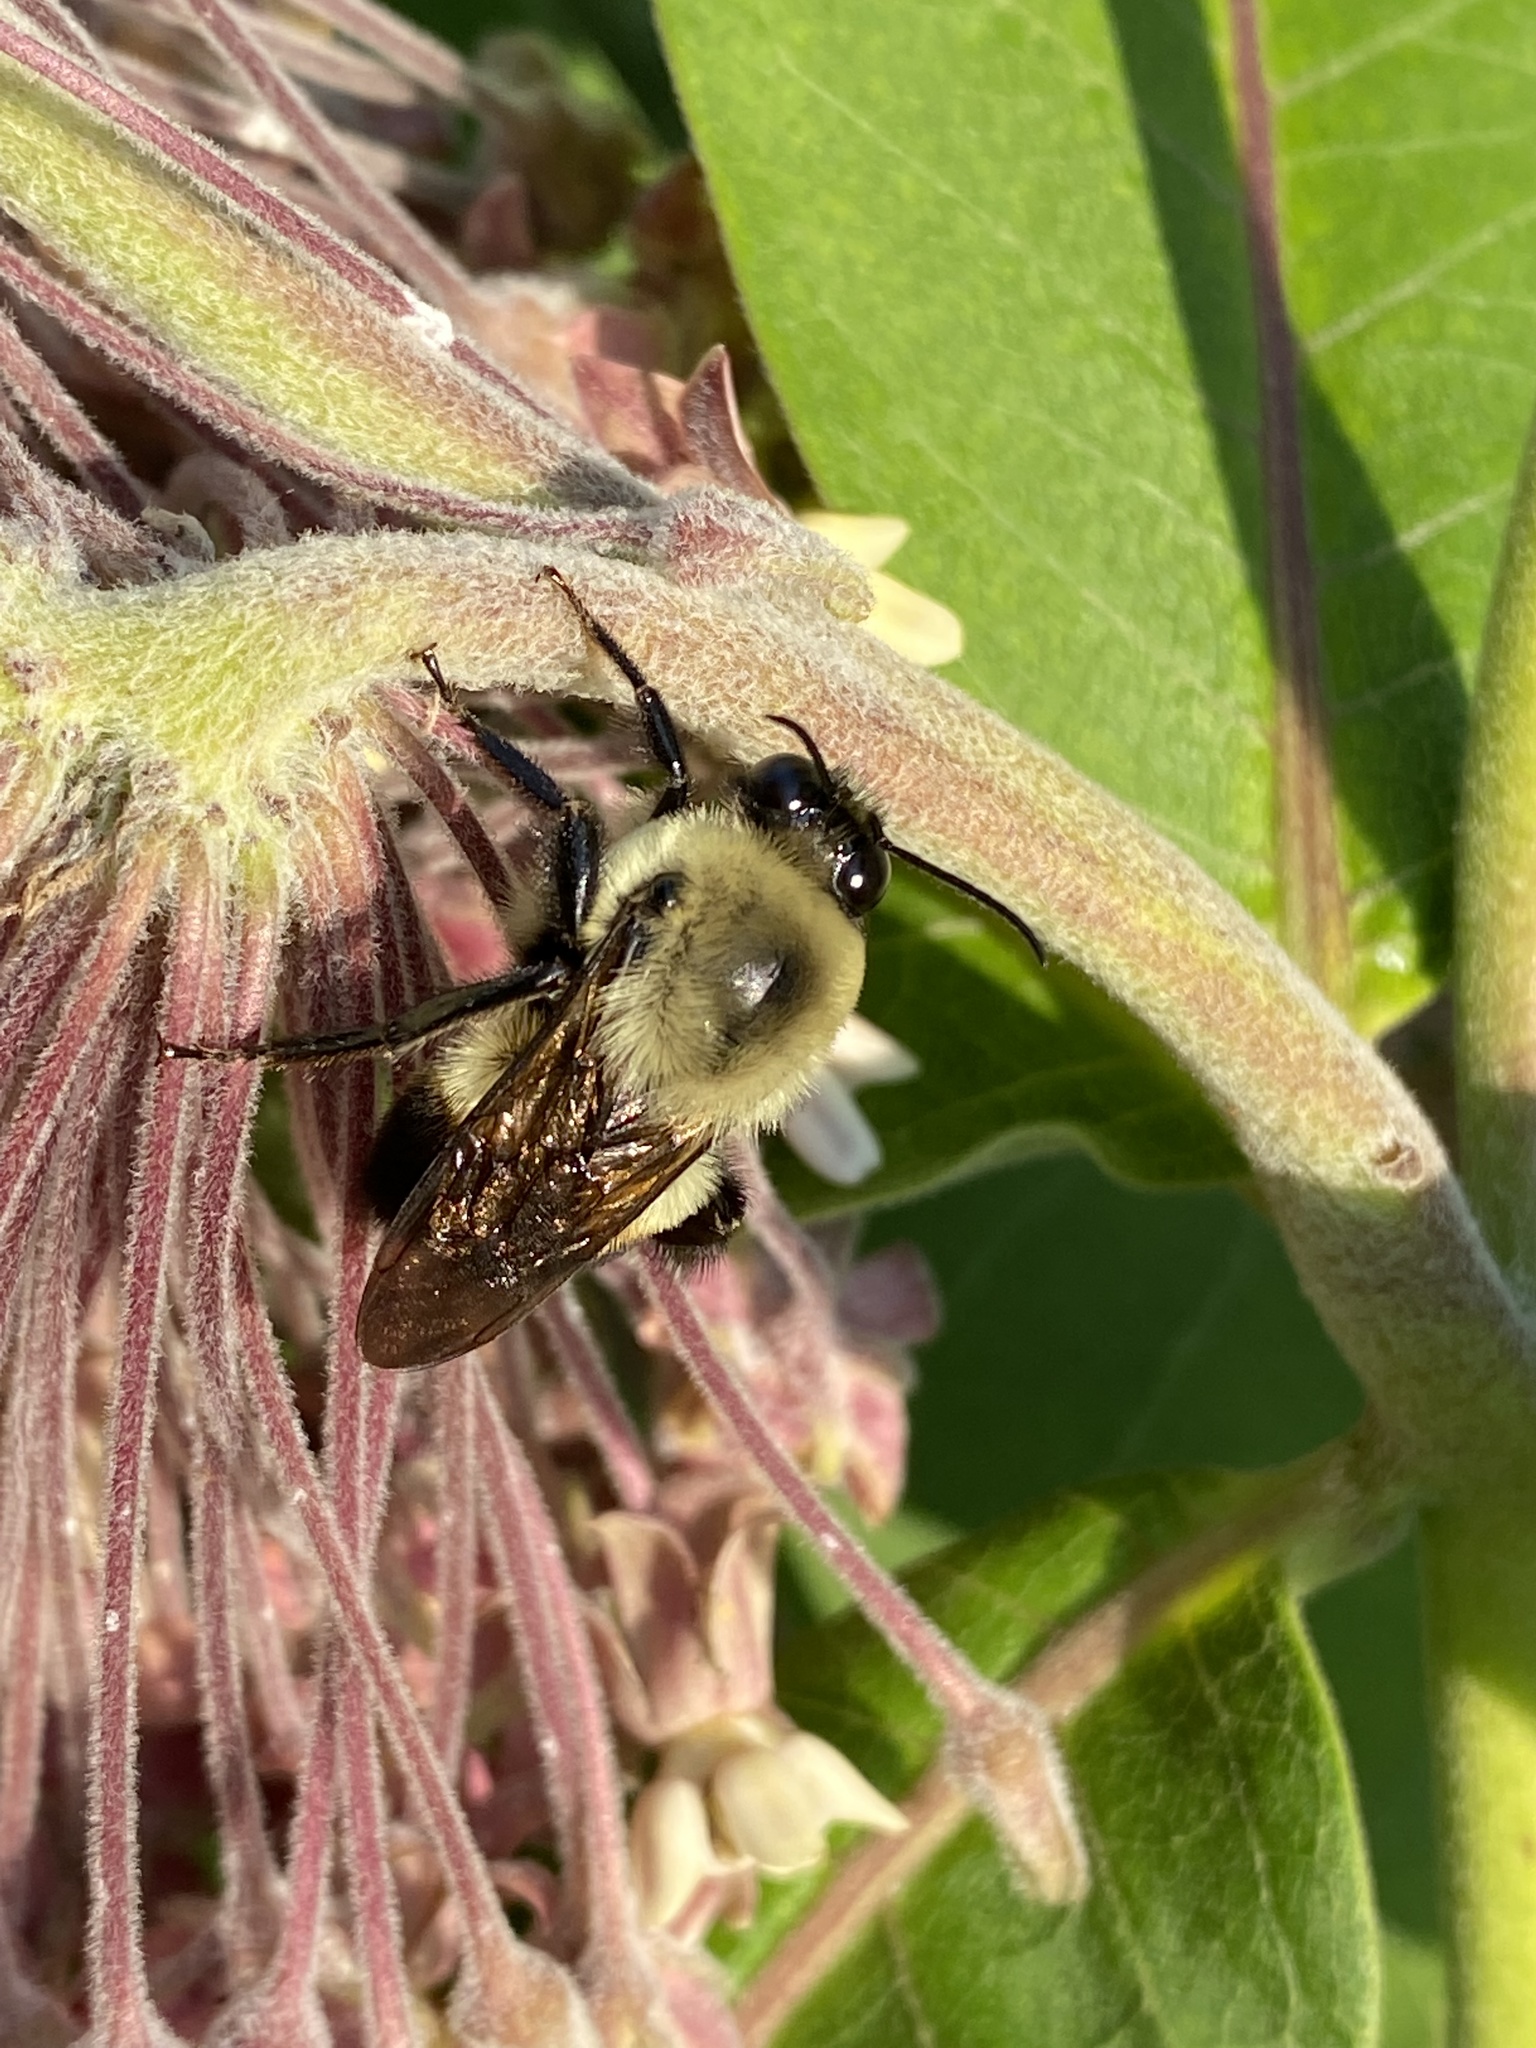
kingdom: Animalia
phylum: Arthropoda
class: Insecta
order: Hymenoptera
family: Apidae
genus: Bombus
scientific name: Bombus griseocollis
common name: Brown-belted bumble bee
